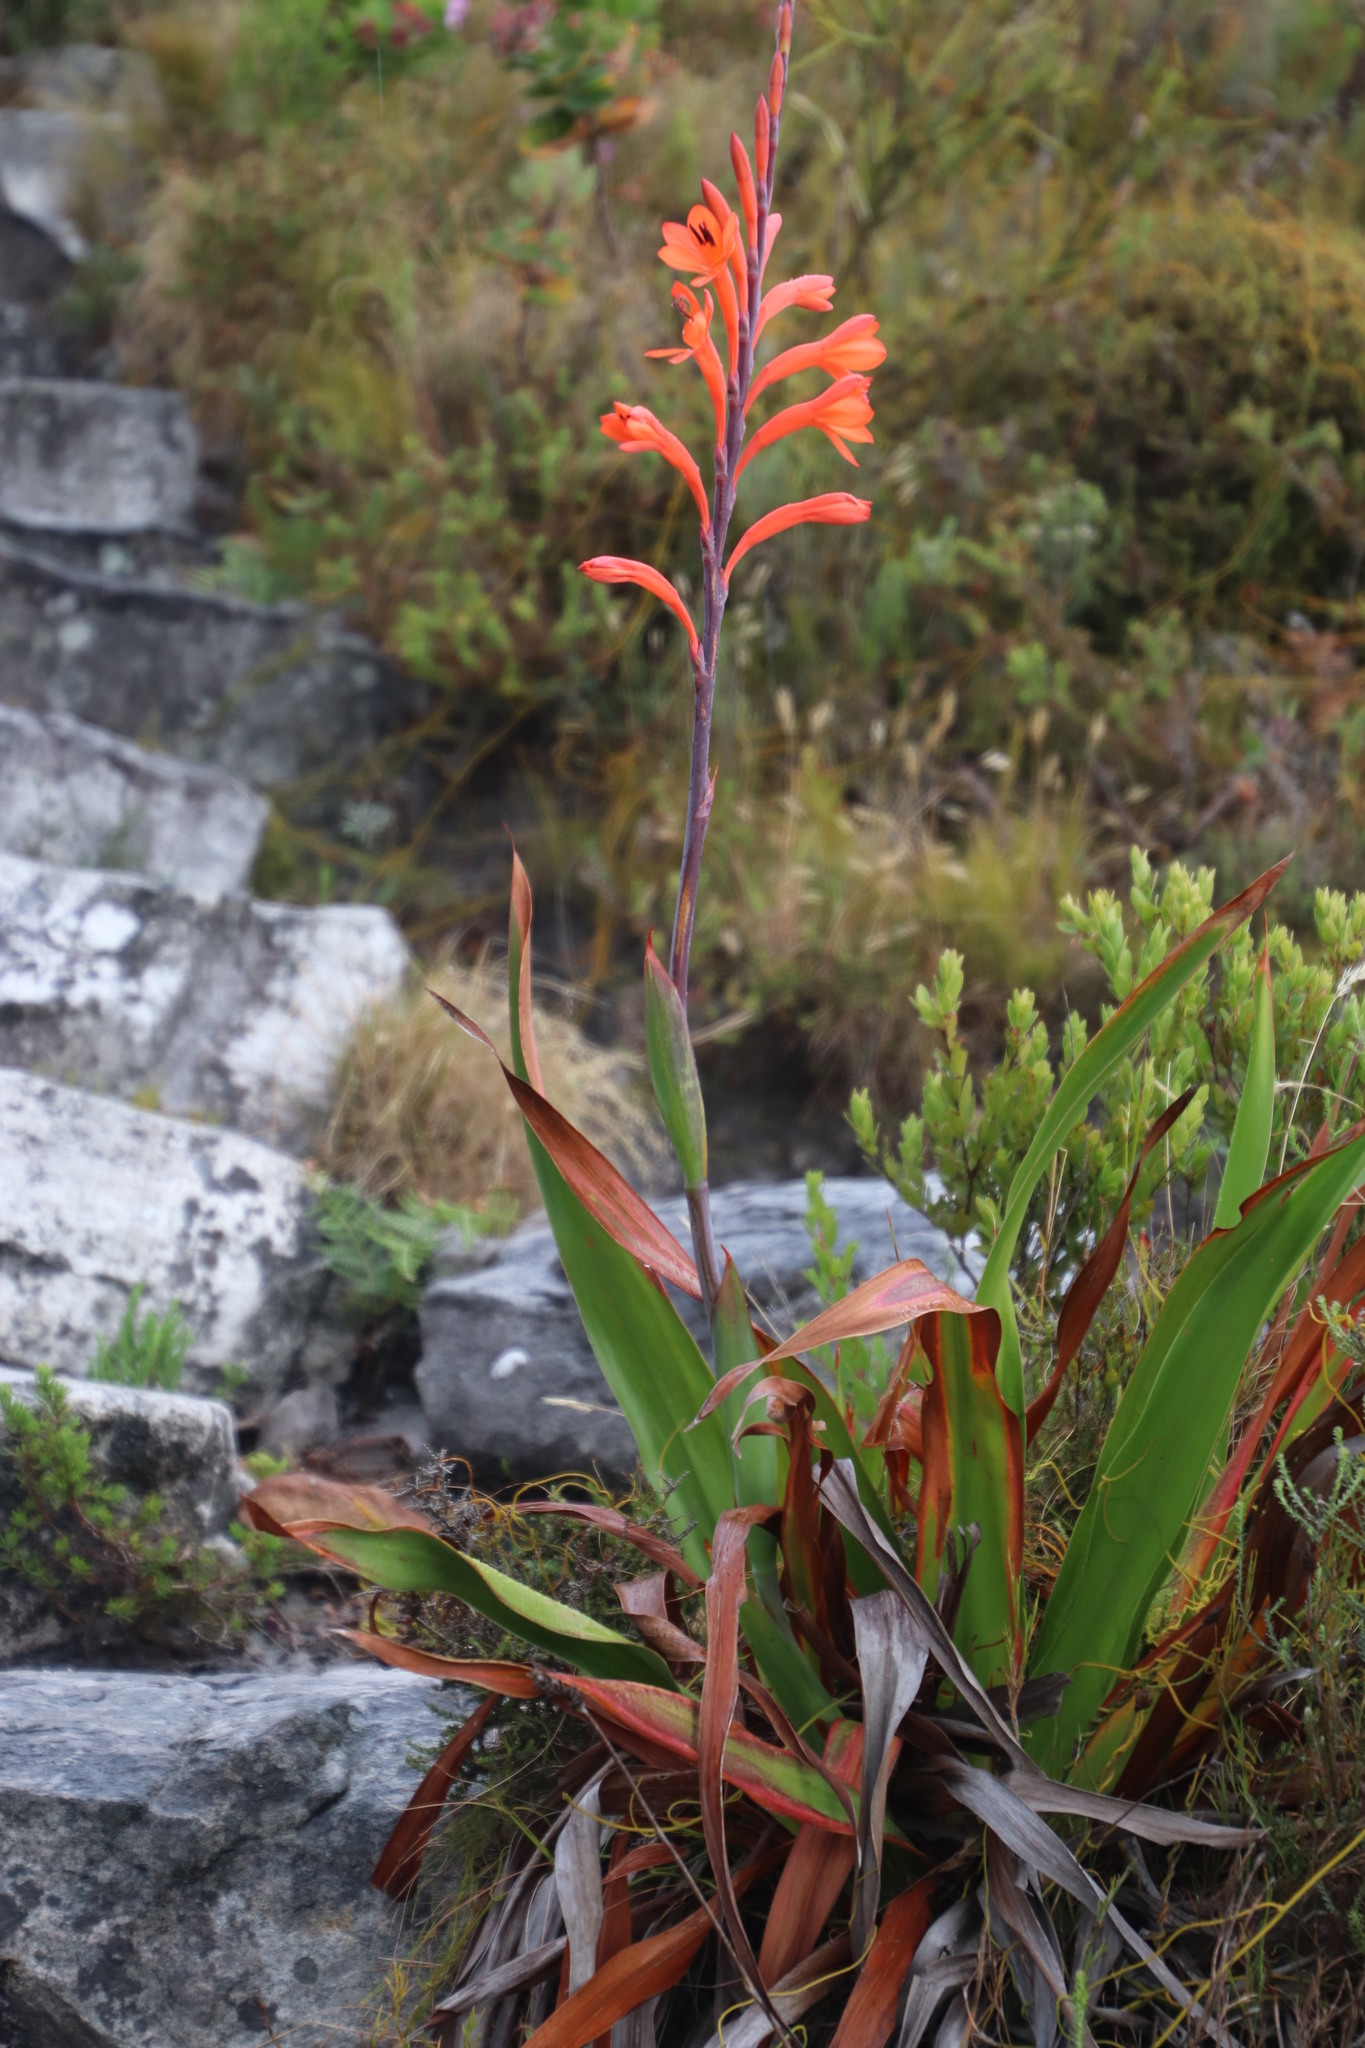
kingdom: Plantae
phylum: Tracheophyta
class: Liliopsida
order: Asparagales
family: Iridaceae
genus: Watsonia
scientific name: Watsonia tabularis
